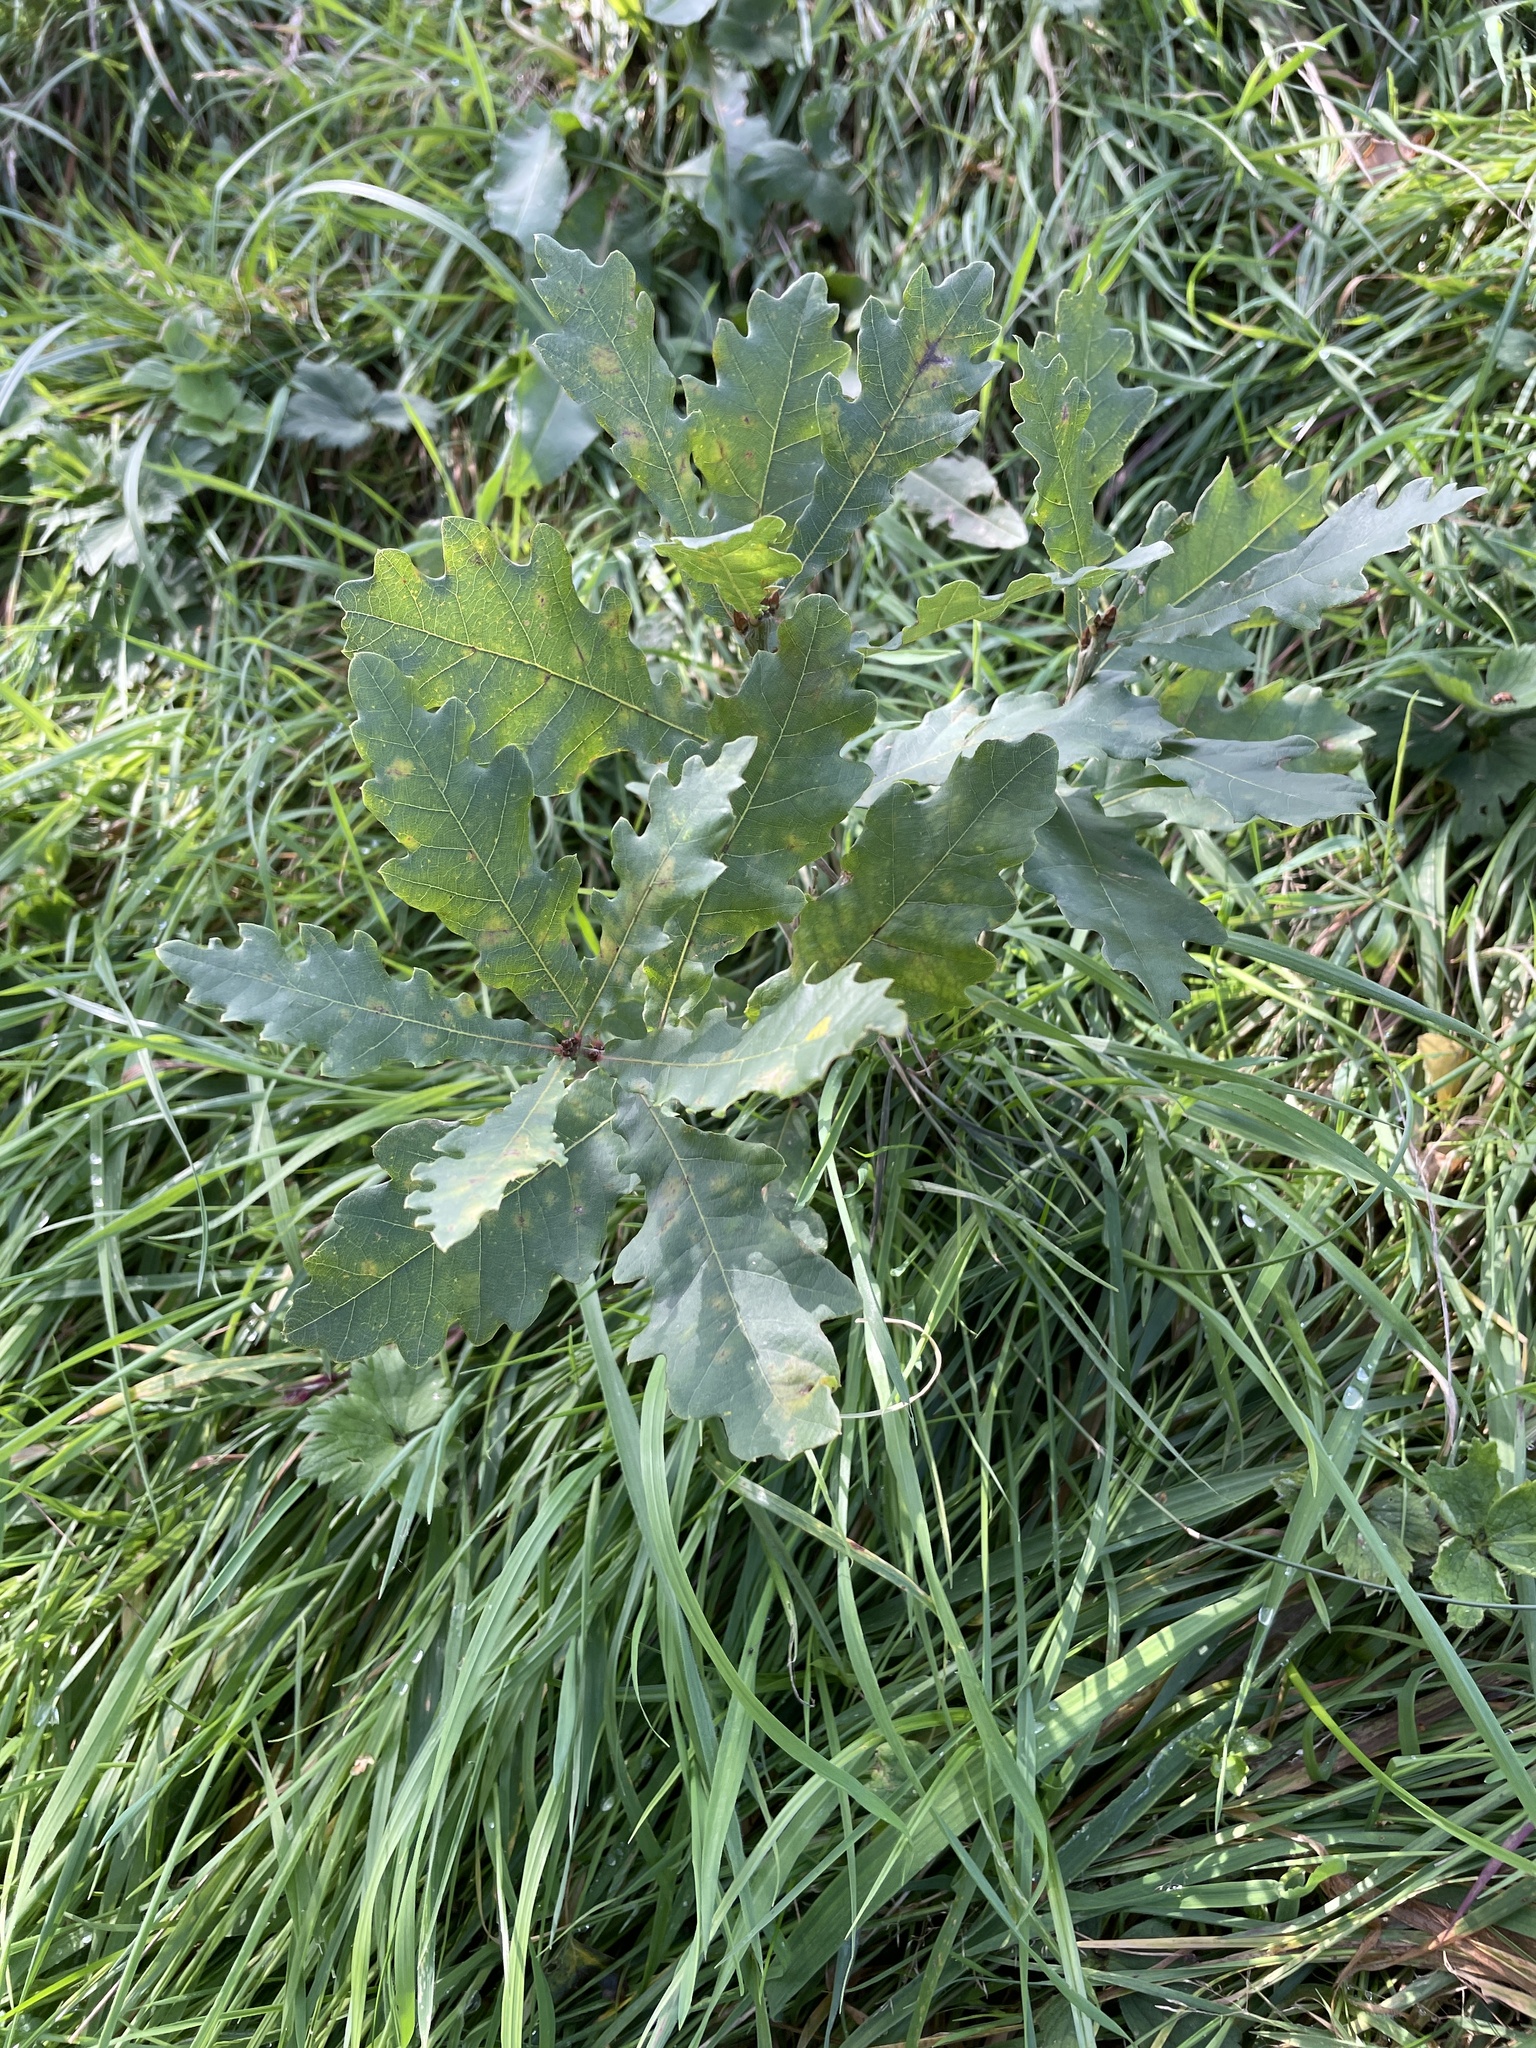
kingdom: Plantae
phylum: Tracheophyta
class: Magnoliopsida
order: Fagales
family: Fagaceae
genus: Quercus
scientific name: Quercus robur
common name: Pedunculate oak
